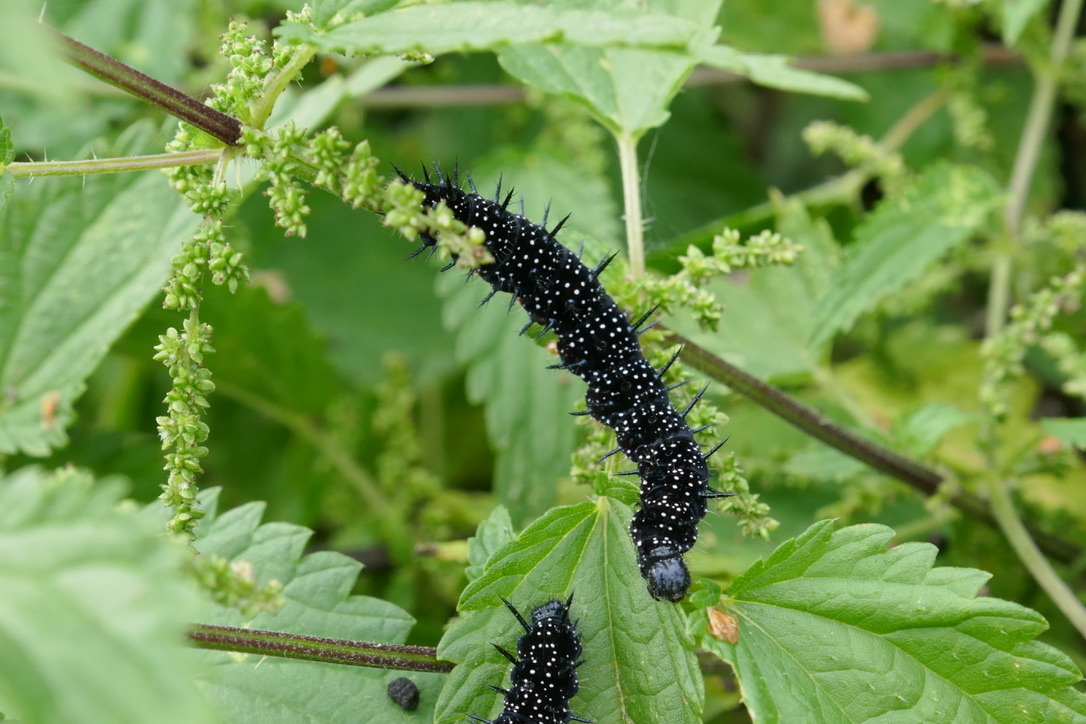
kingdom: Animalia
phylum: Arthropoda
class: Insecta
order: Lepidoptera
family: Nymphalidae
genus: Aglais
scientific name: Aglais io
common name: Peacock
